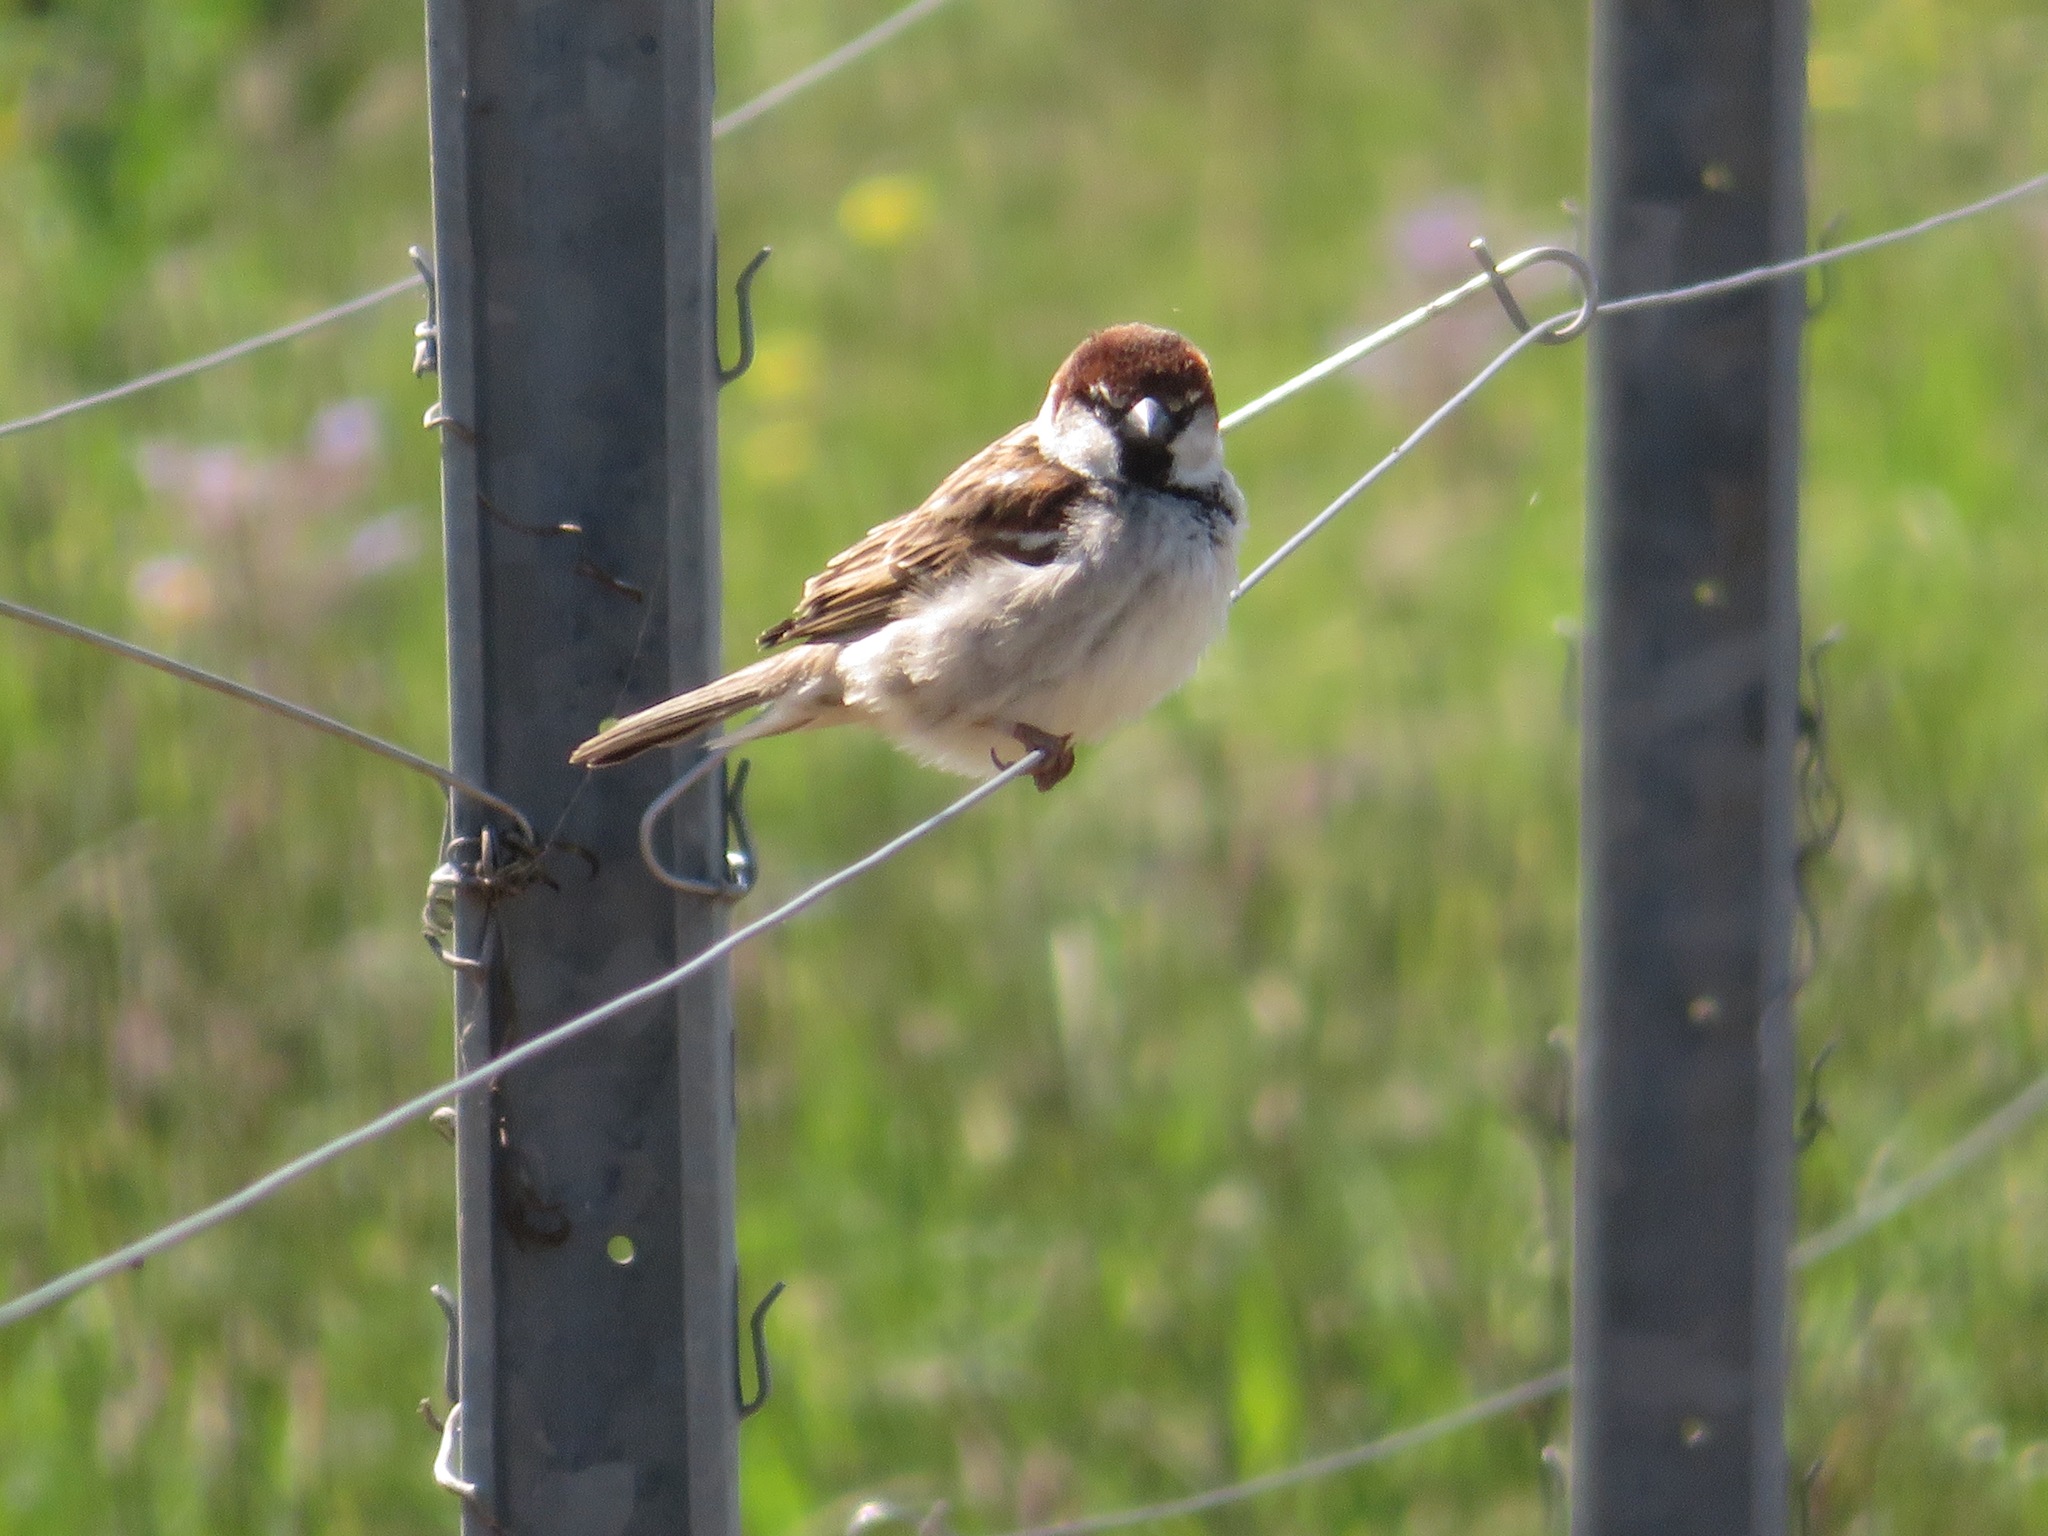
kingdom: Animalia
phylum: Chordata
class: Aves
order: Passeriformes
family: Passeridae
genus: Passer
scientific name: Passer italiae
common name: Italian sparrow
